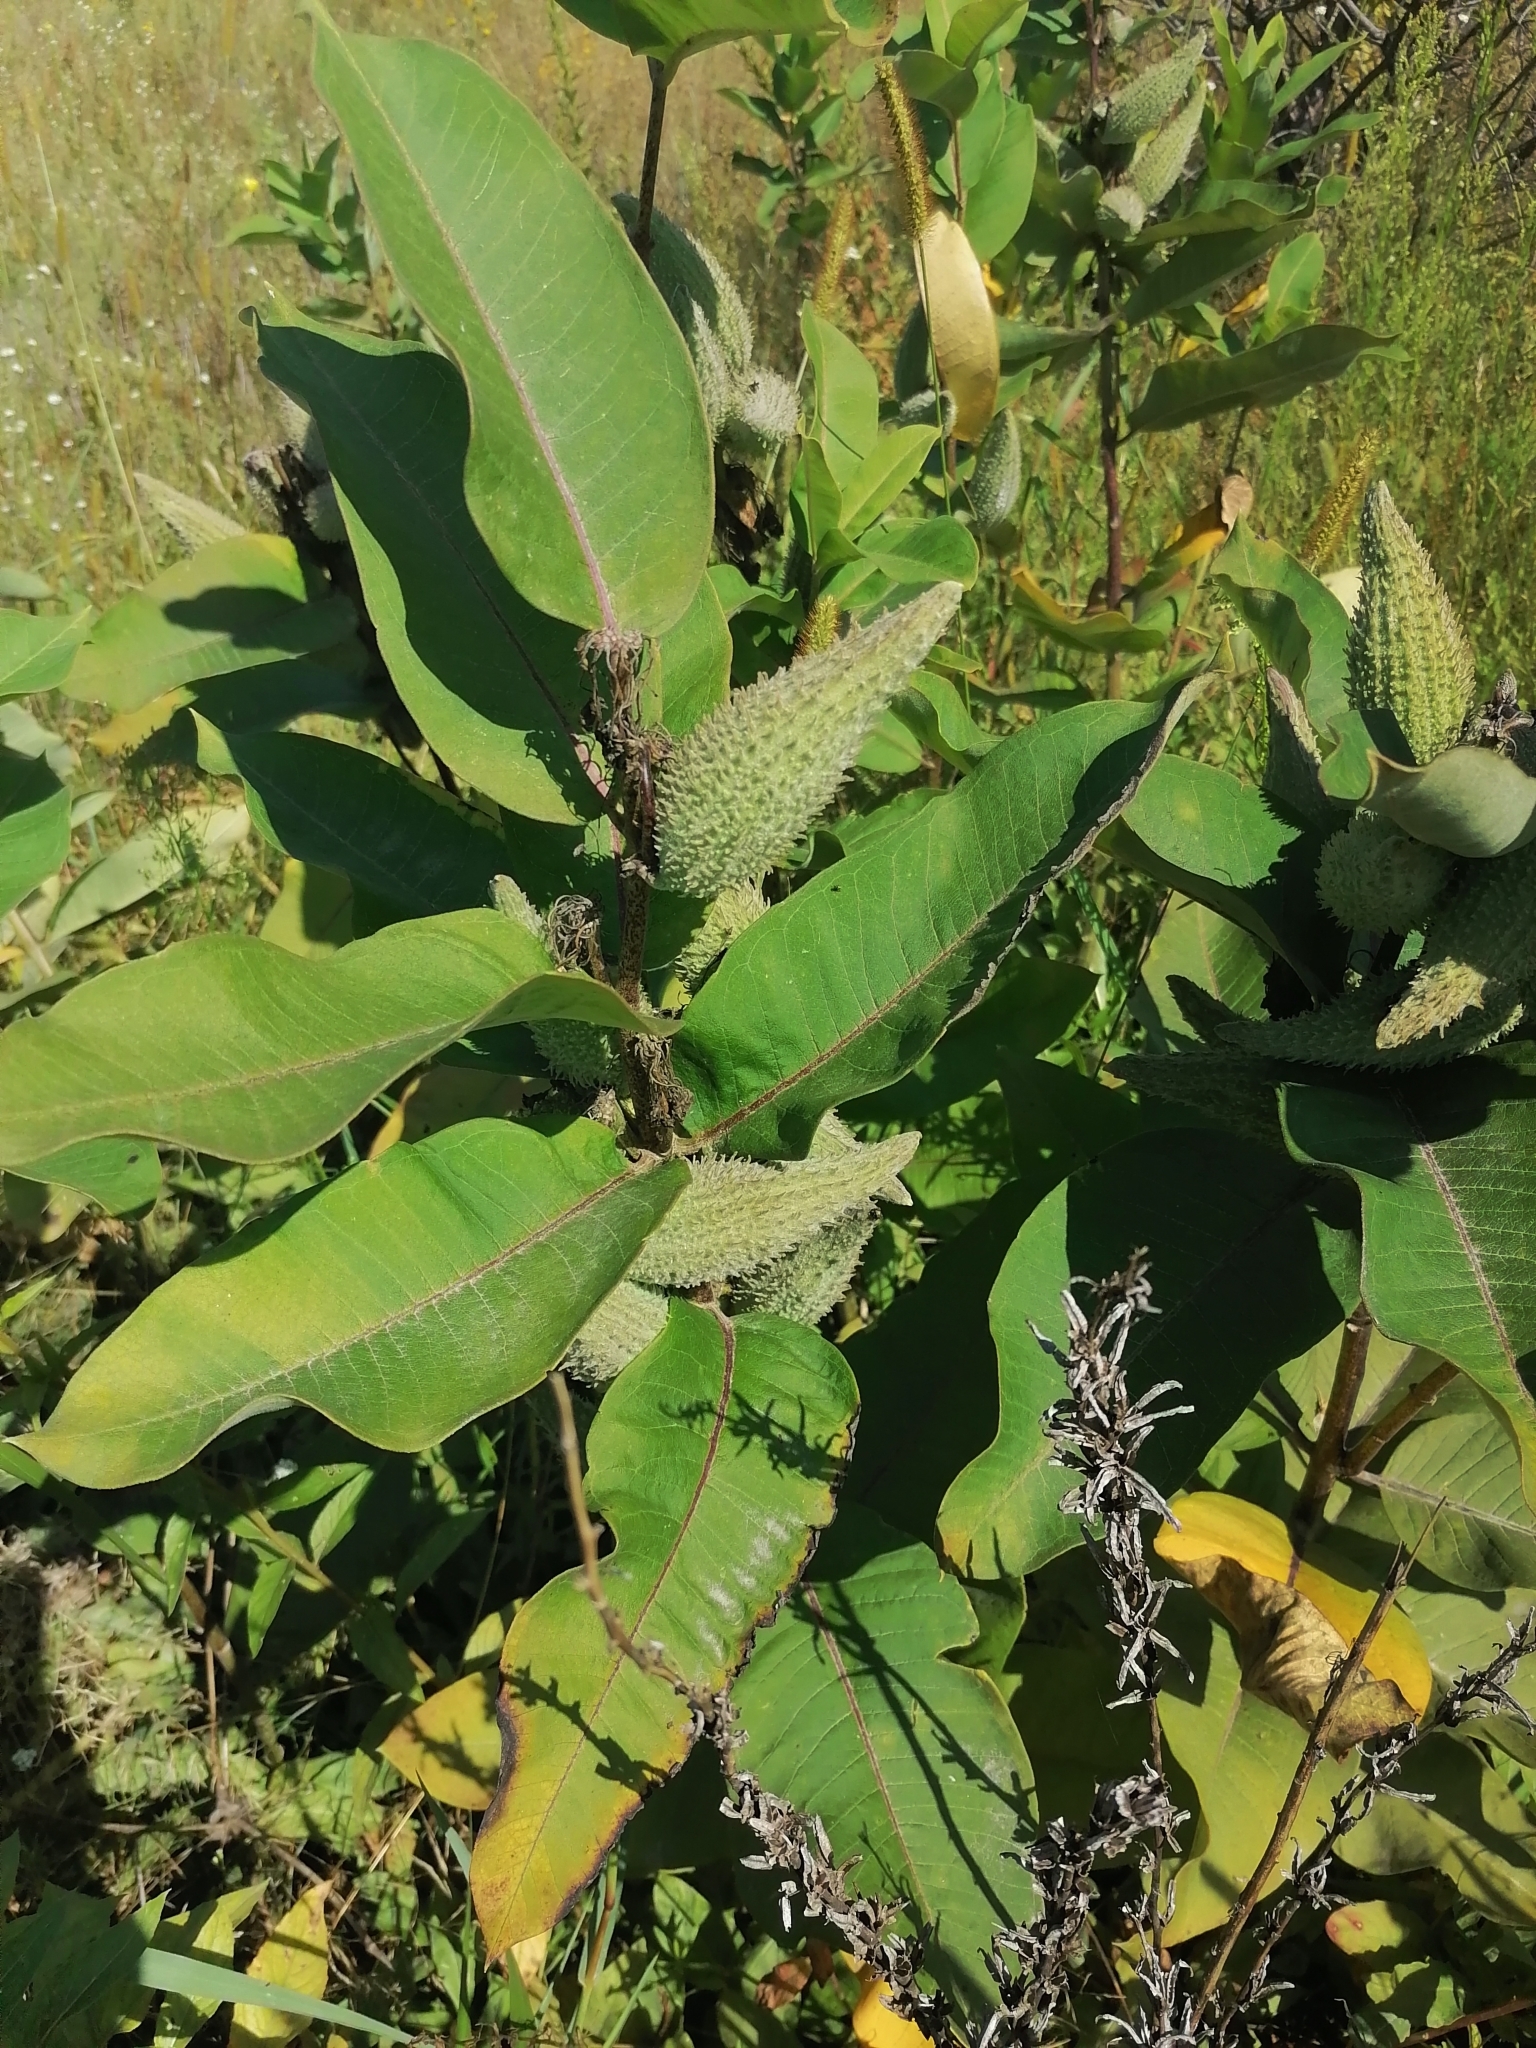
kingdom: Plantae
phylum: Tracheophyta
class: Magnoliopsida
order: Gentianales
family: Apocynaceae
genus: Asclepias
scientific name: Asclepias syriaca
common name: Common milkweed
